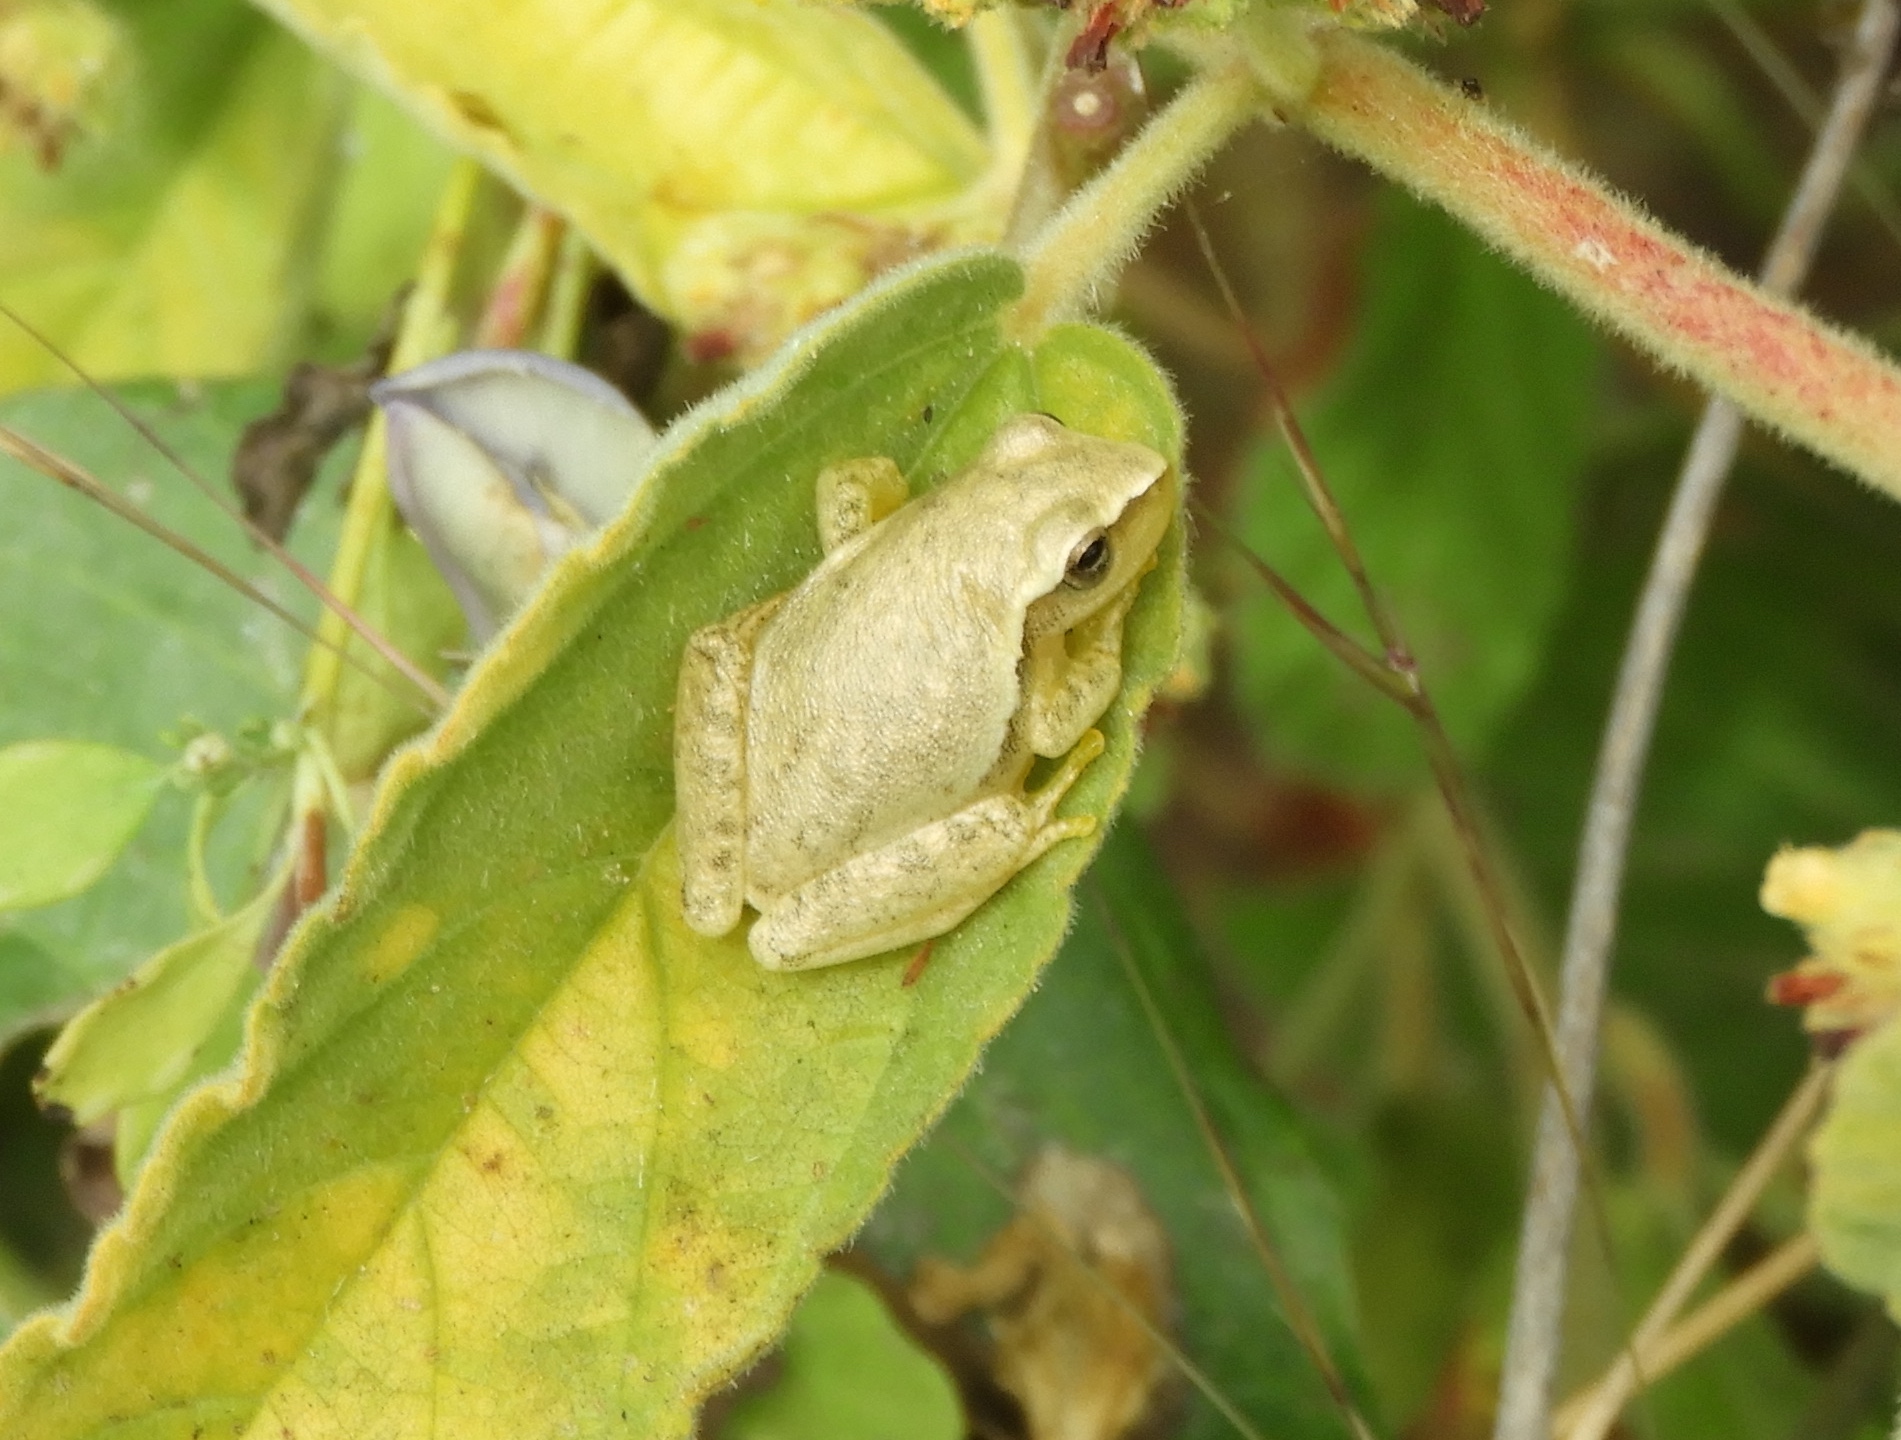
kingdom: Animalia
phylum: Chordata
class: Amphibia
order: Anura
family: Hylidae
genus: Tlalocohyla
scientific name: Tlalocohyla smithii
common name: Dwarf mexican treefrog
